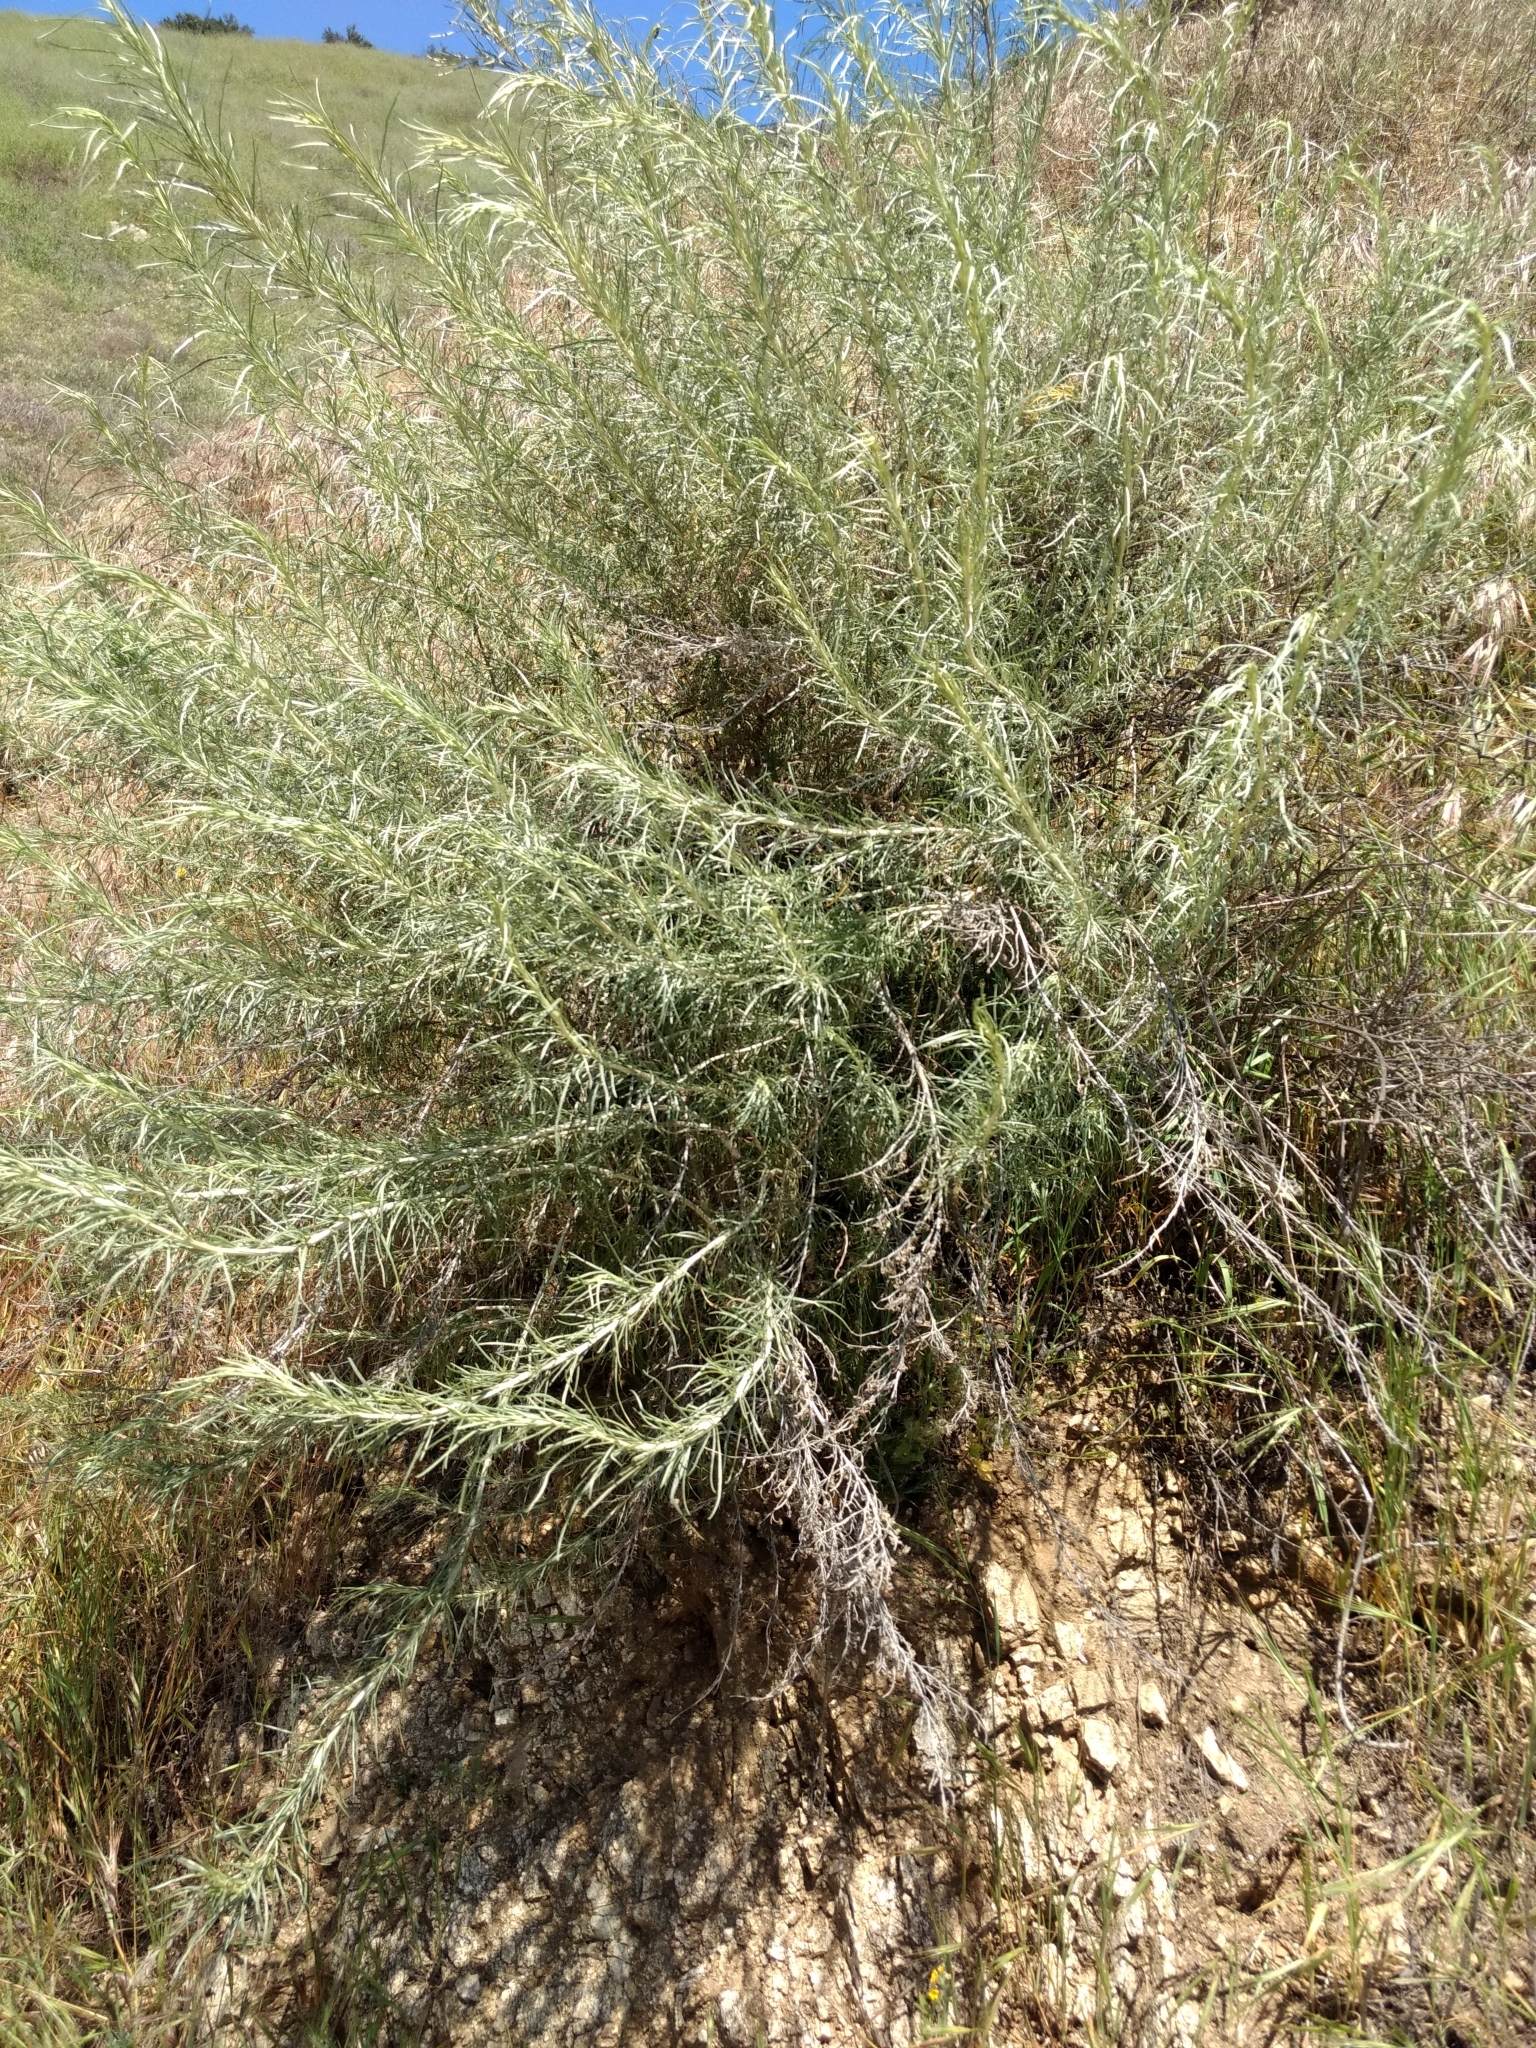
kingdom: Plantae
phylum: Tracheophyta
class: Magnoliopsida
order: Asterales
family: Asteraceae
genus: Artemisia
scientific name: Artemisia californica
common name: California sagebrush
